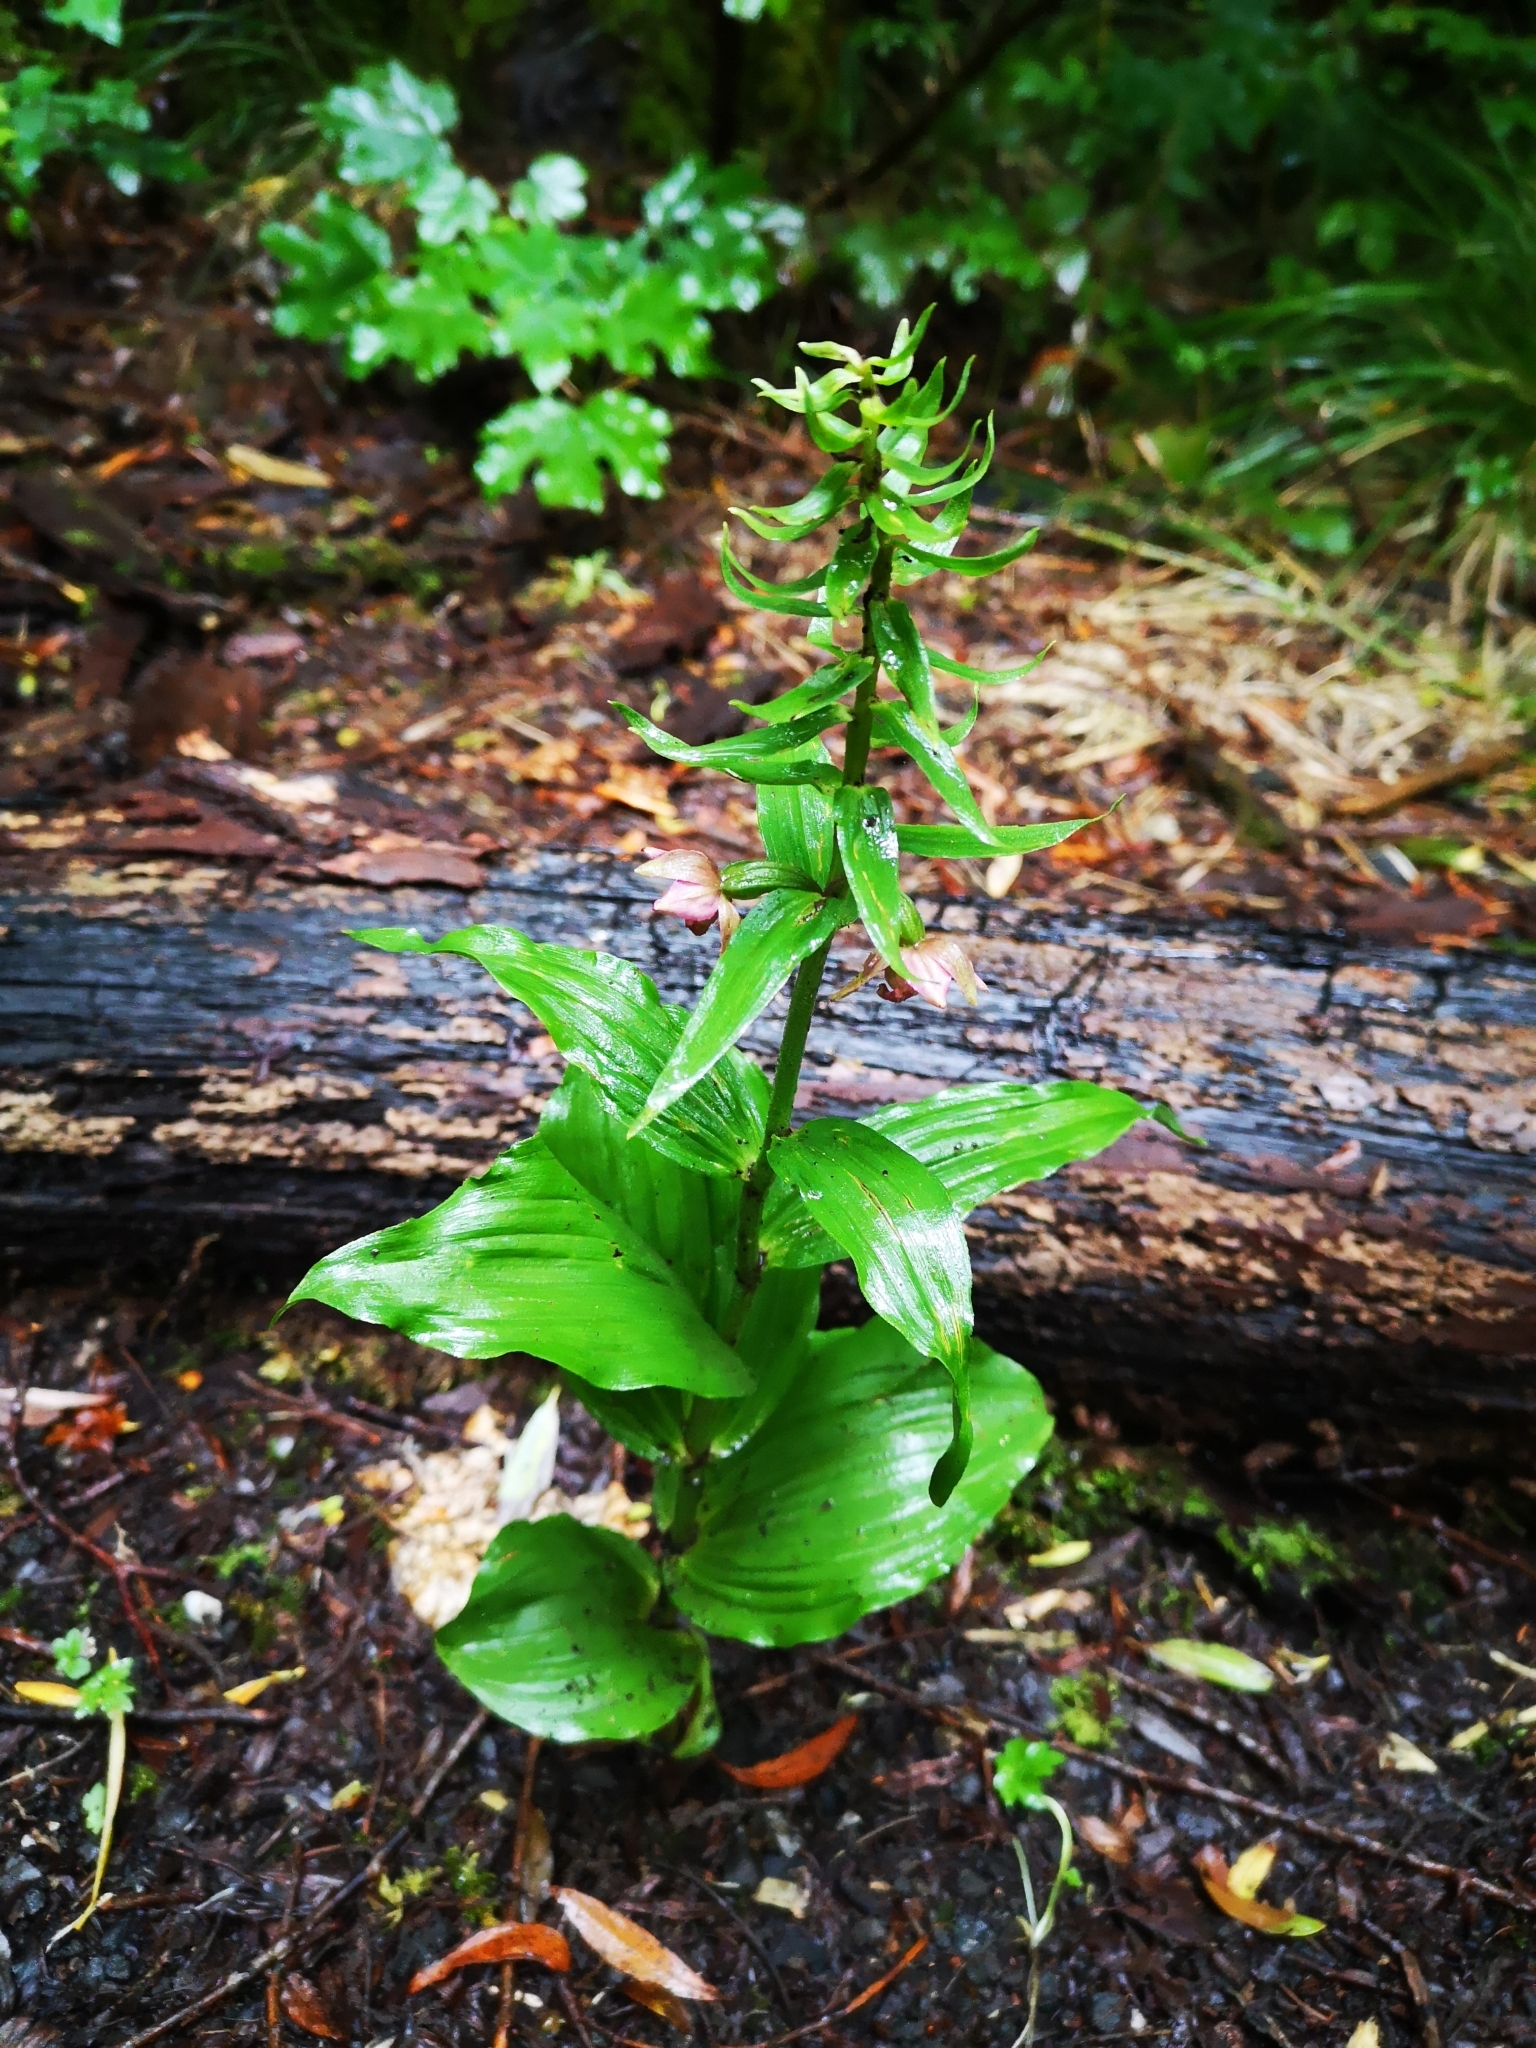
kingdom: Plantae
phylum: Tracheophyta
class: Liliopsida
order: Asparagales
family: Orchidaceae
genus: Epipactis
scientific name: Epipactis helleborine
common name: Broad-leaved helleborine
